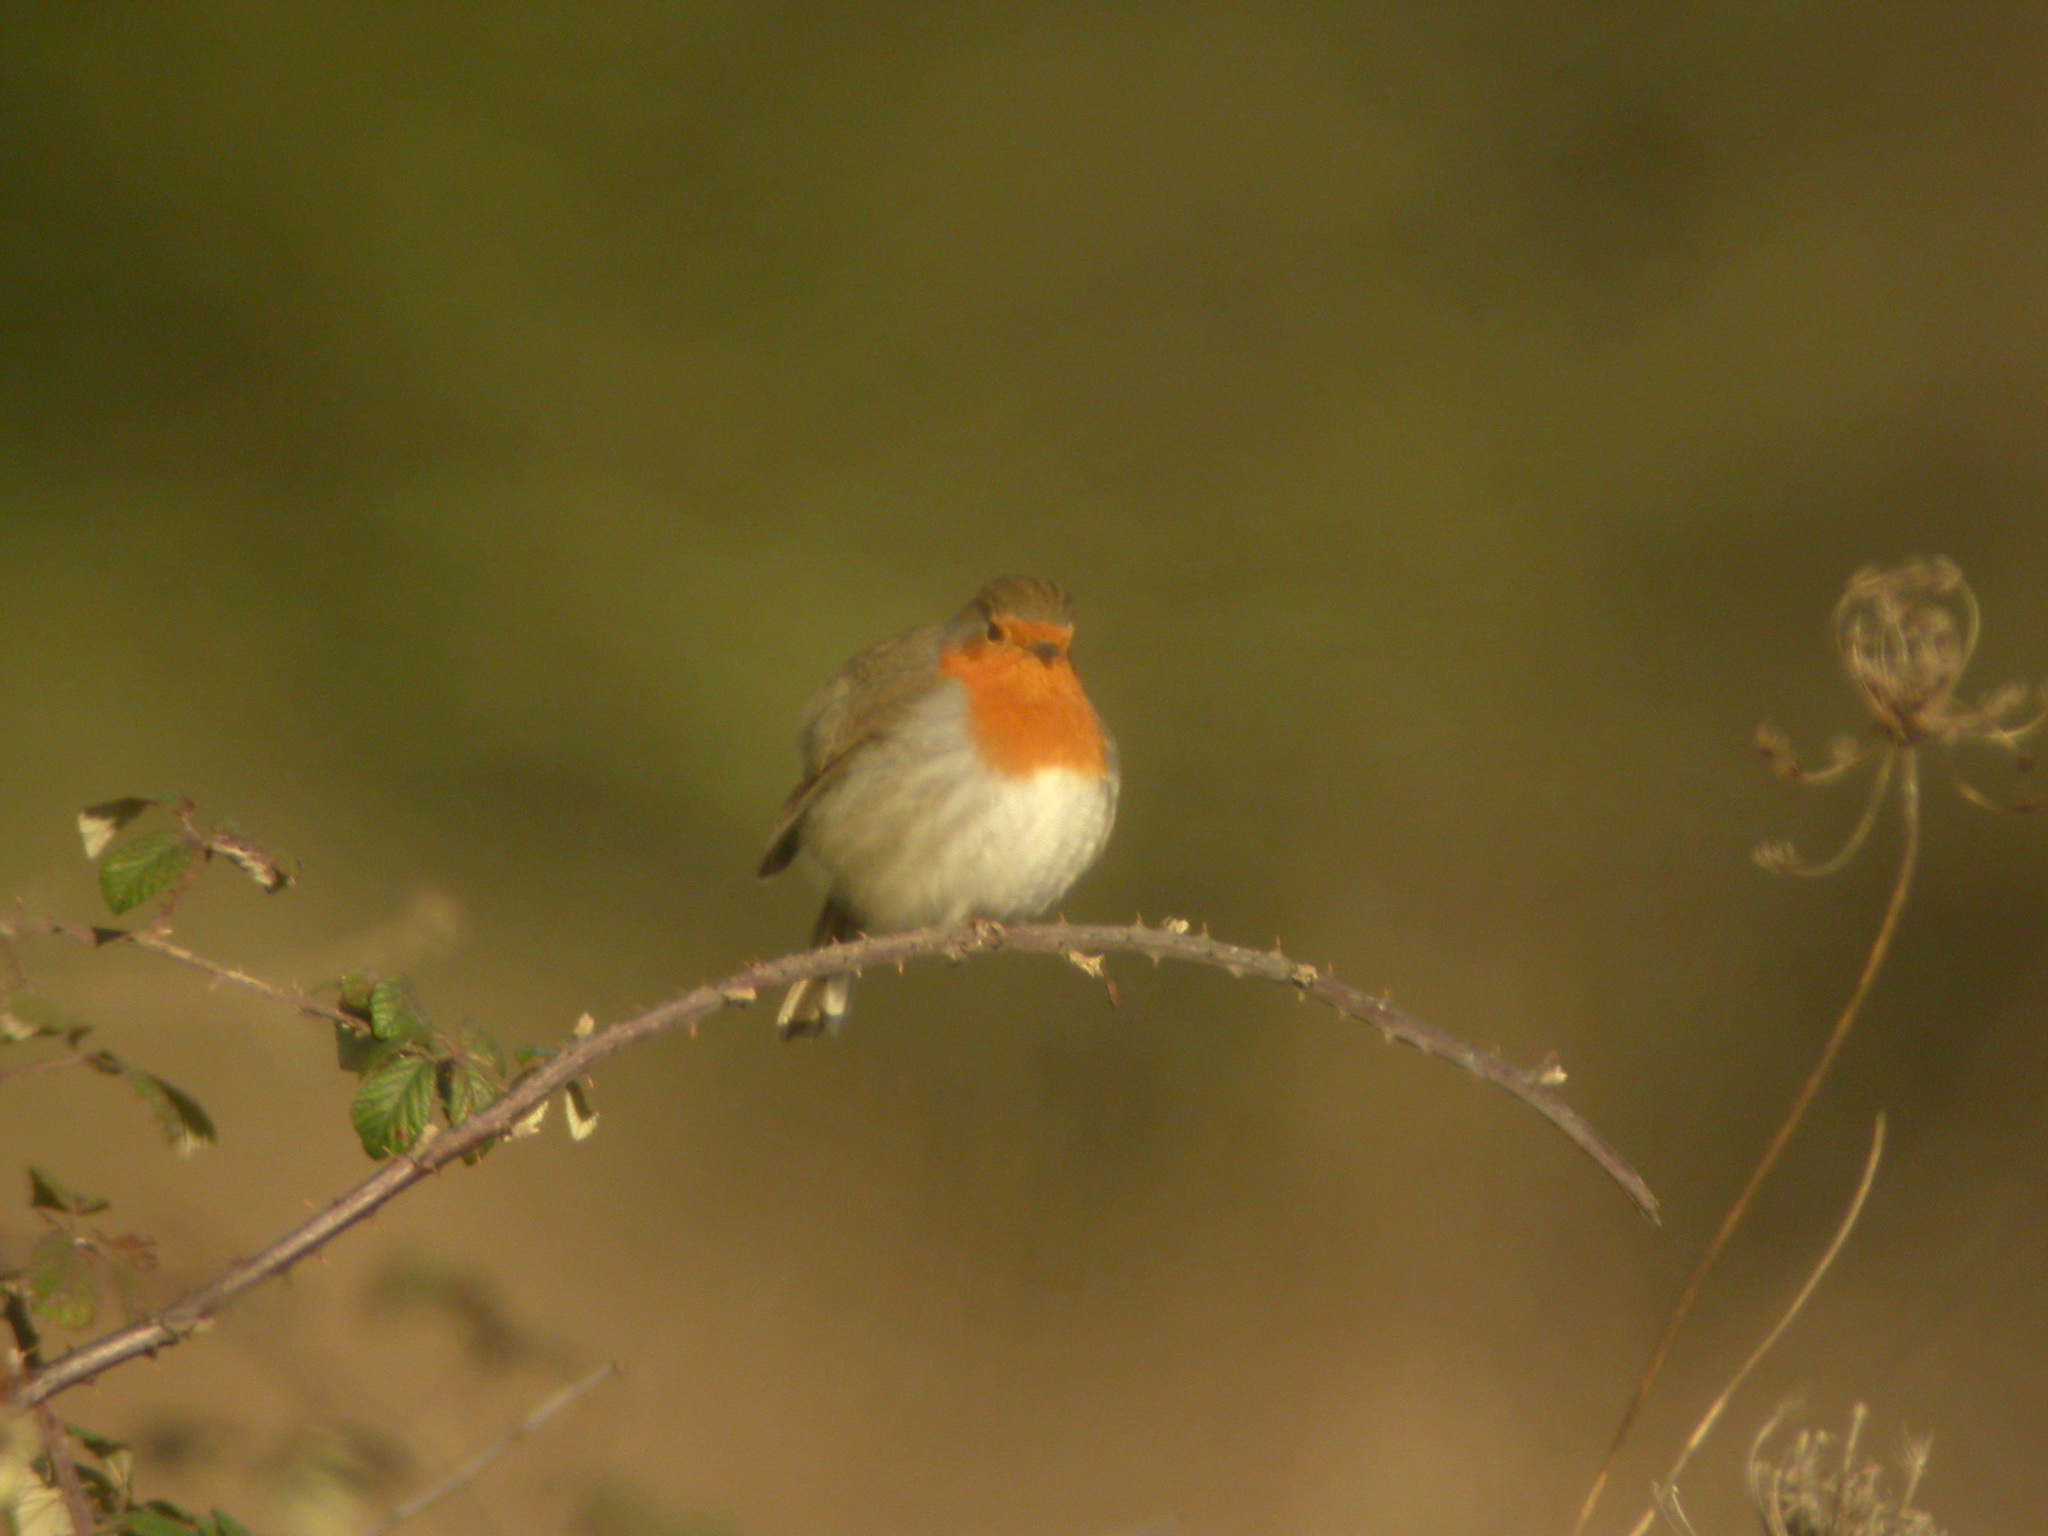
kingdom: Animalia
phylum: Chordata
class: Aves
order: Passeriformes
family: Muscicapidae
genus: Erithacus
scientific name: Erithacus rubecula
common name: European robin
